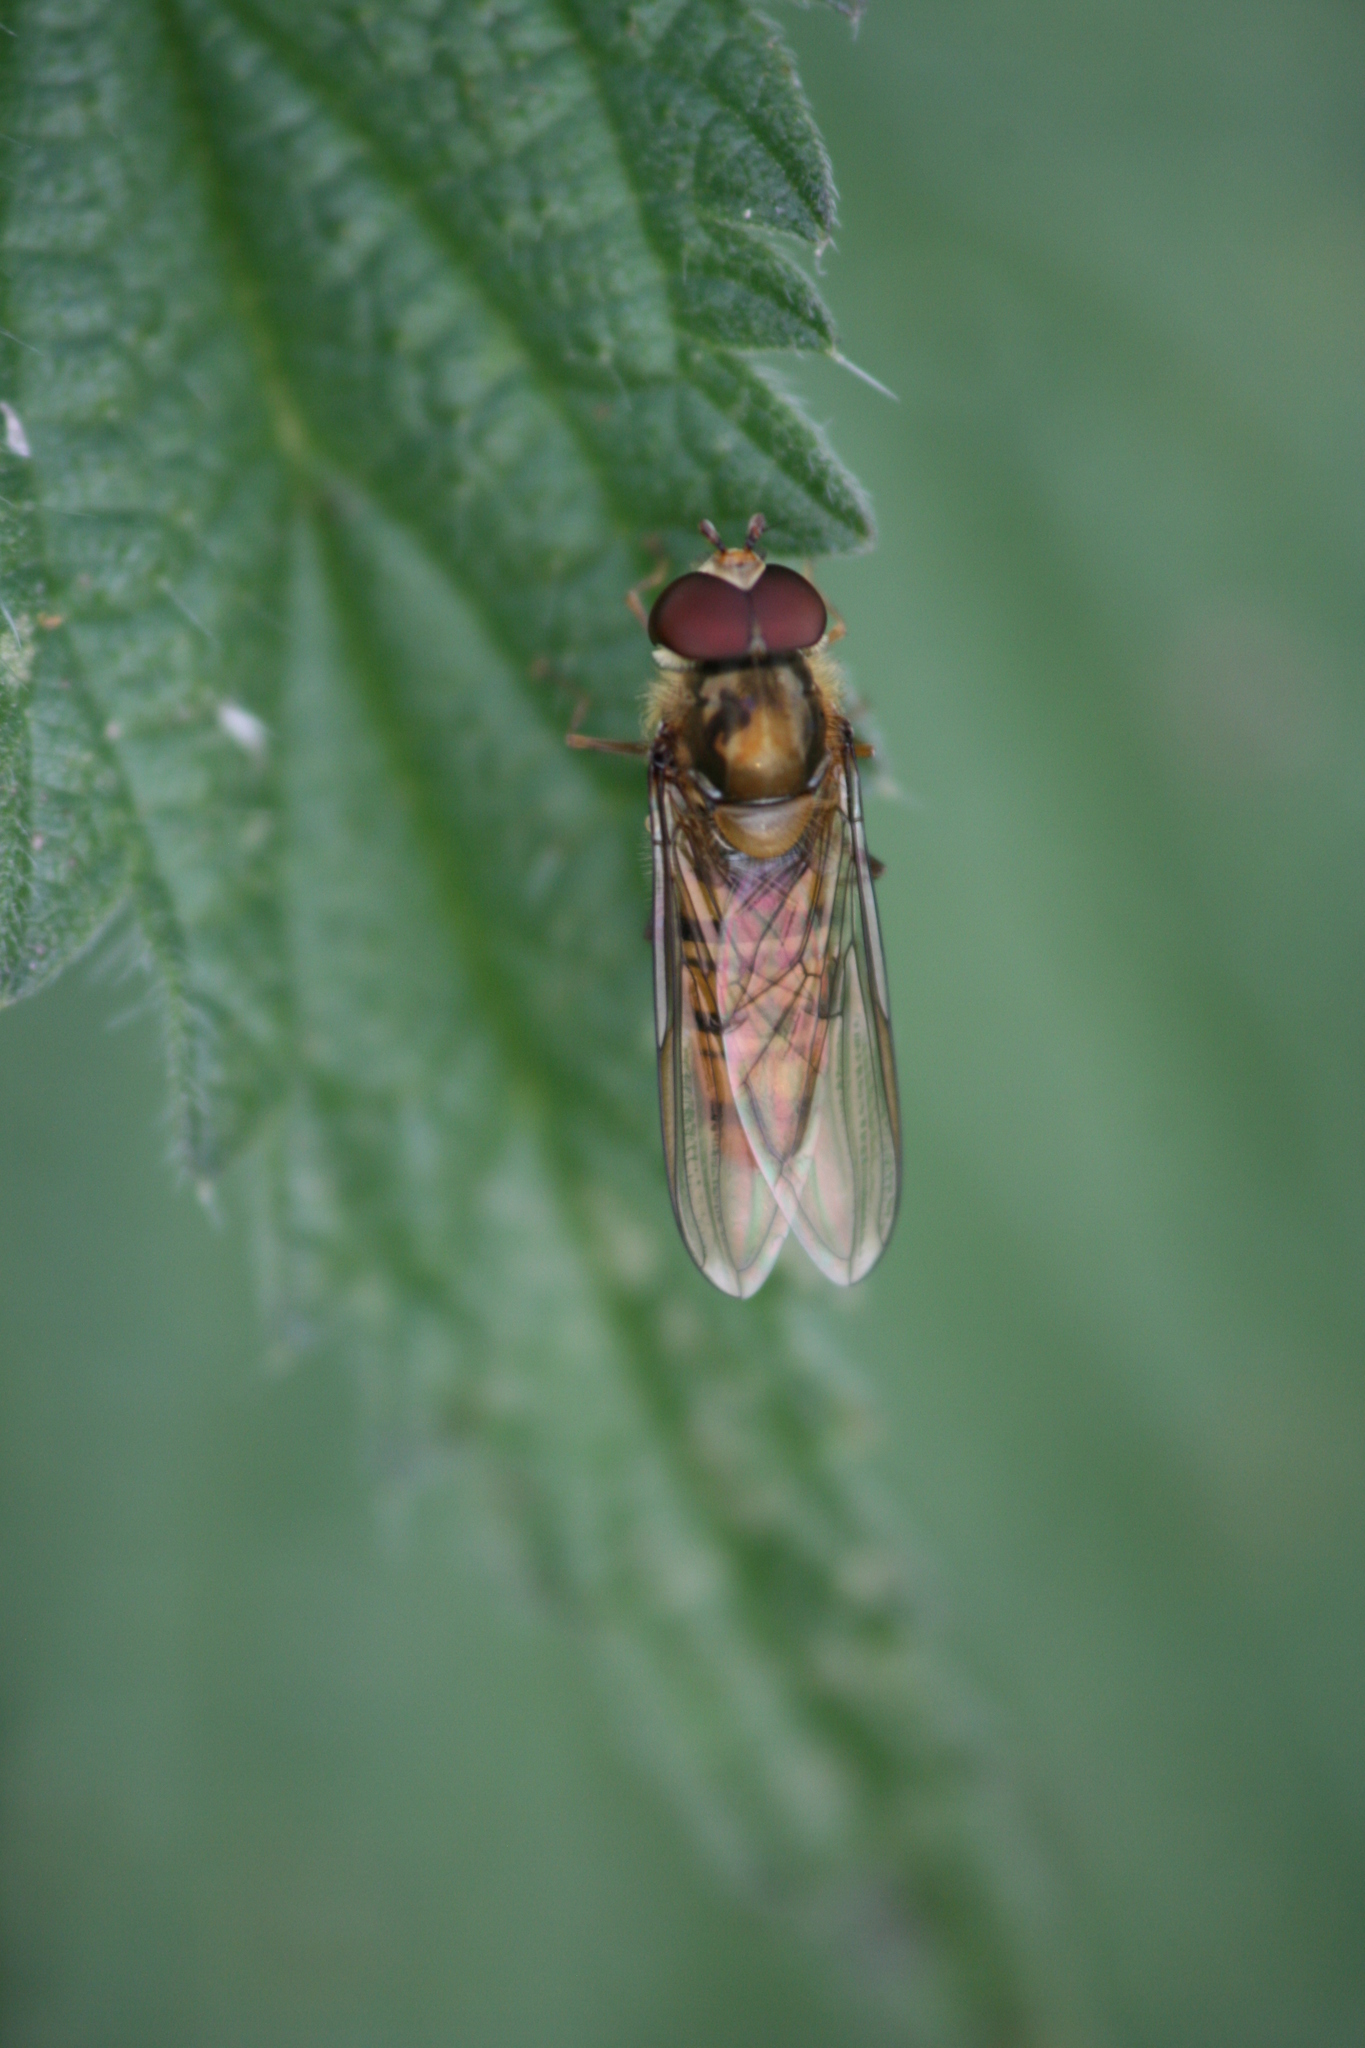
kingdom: Animalia
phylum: Arthropoda
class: Insecta
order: Diptera
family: Syrphidae
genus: Episyrphus
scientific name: Episyrphus balteatus
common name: Marmalade hoverfly
